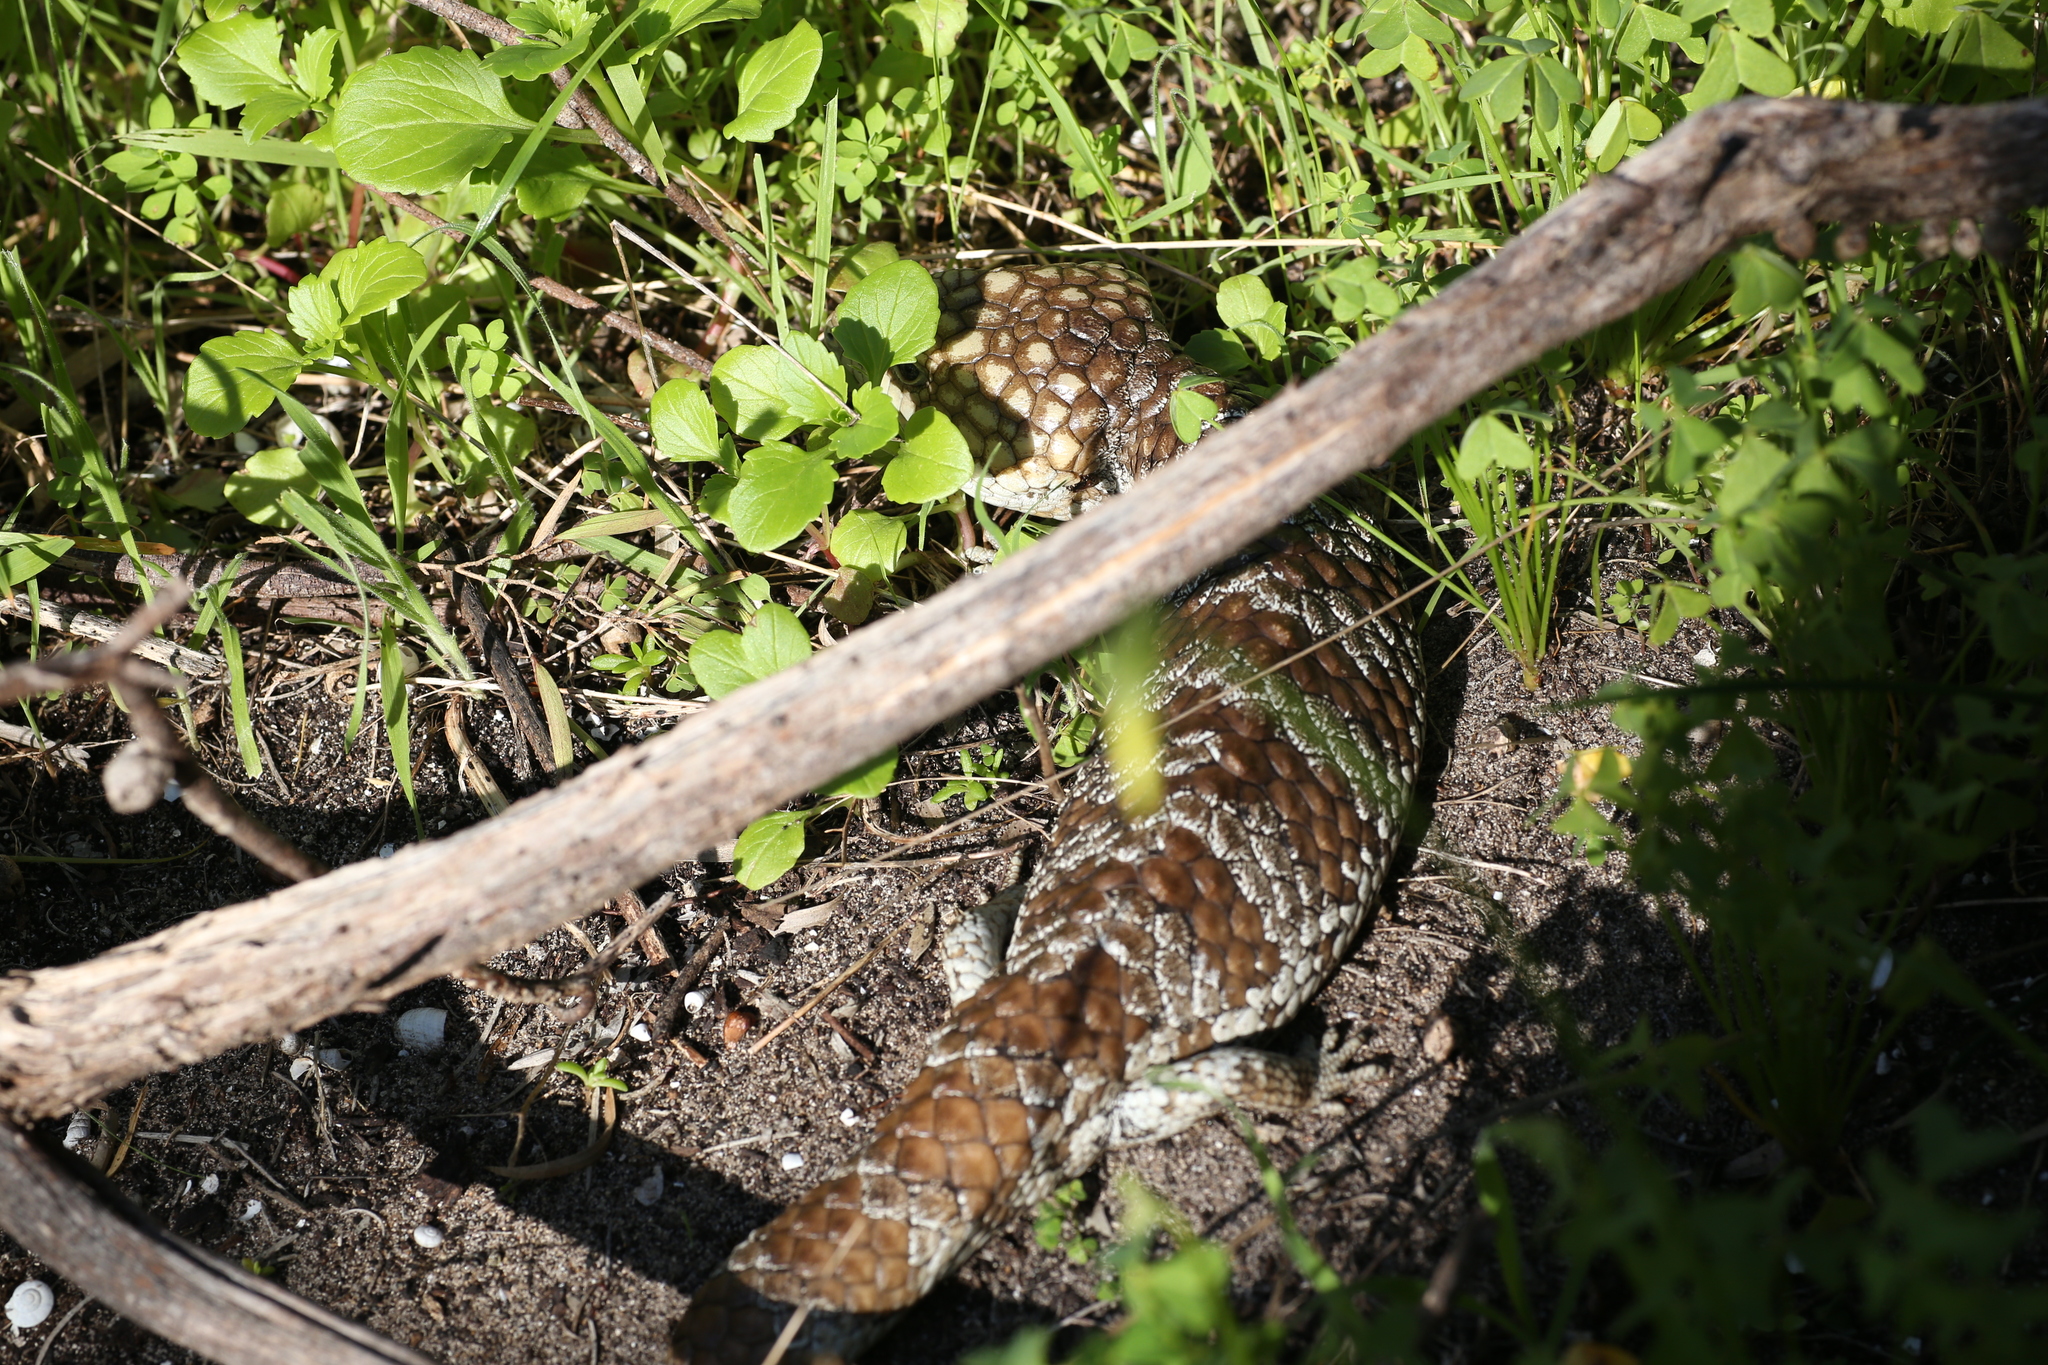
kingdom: Animalia
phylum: Chordata
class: Squamata
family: Scincidae
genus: Tiliqua
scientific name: Tiliqua rugosa
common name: Pinecone lizard
